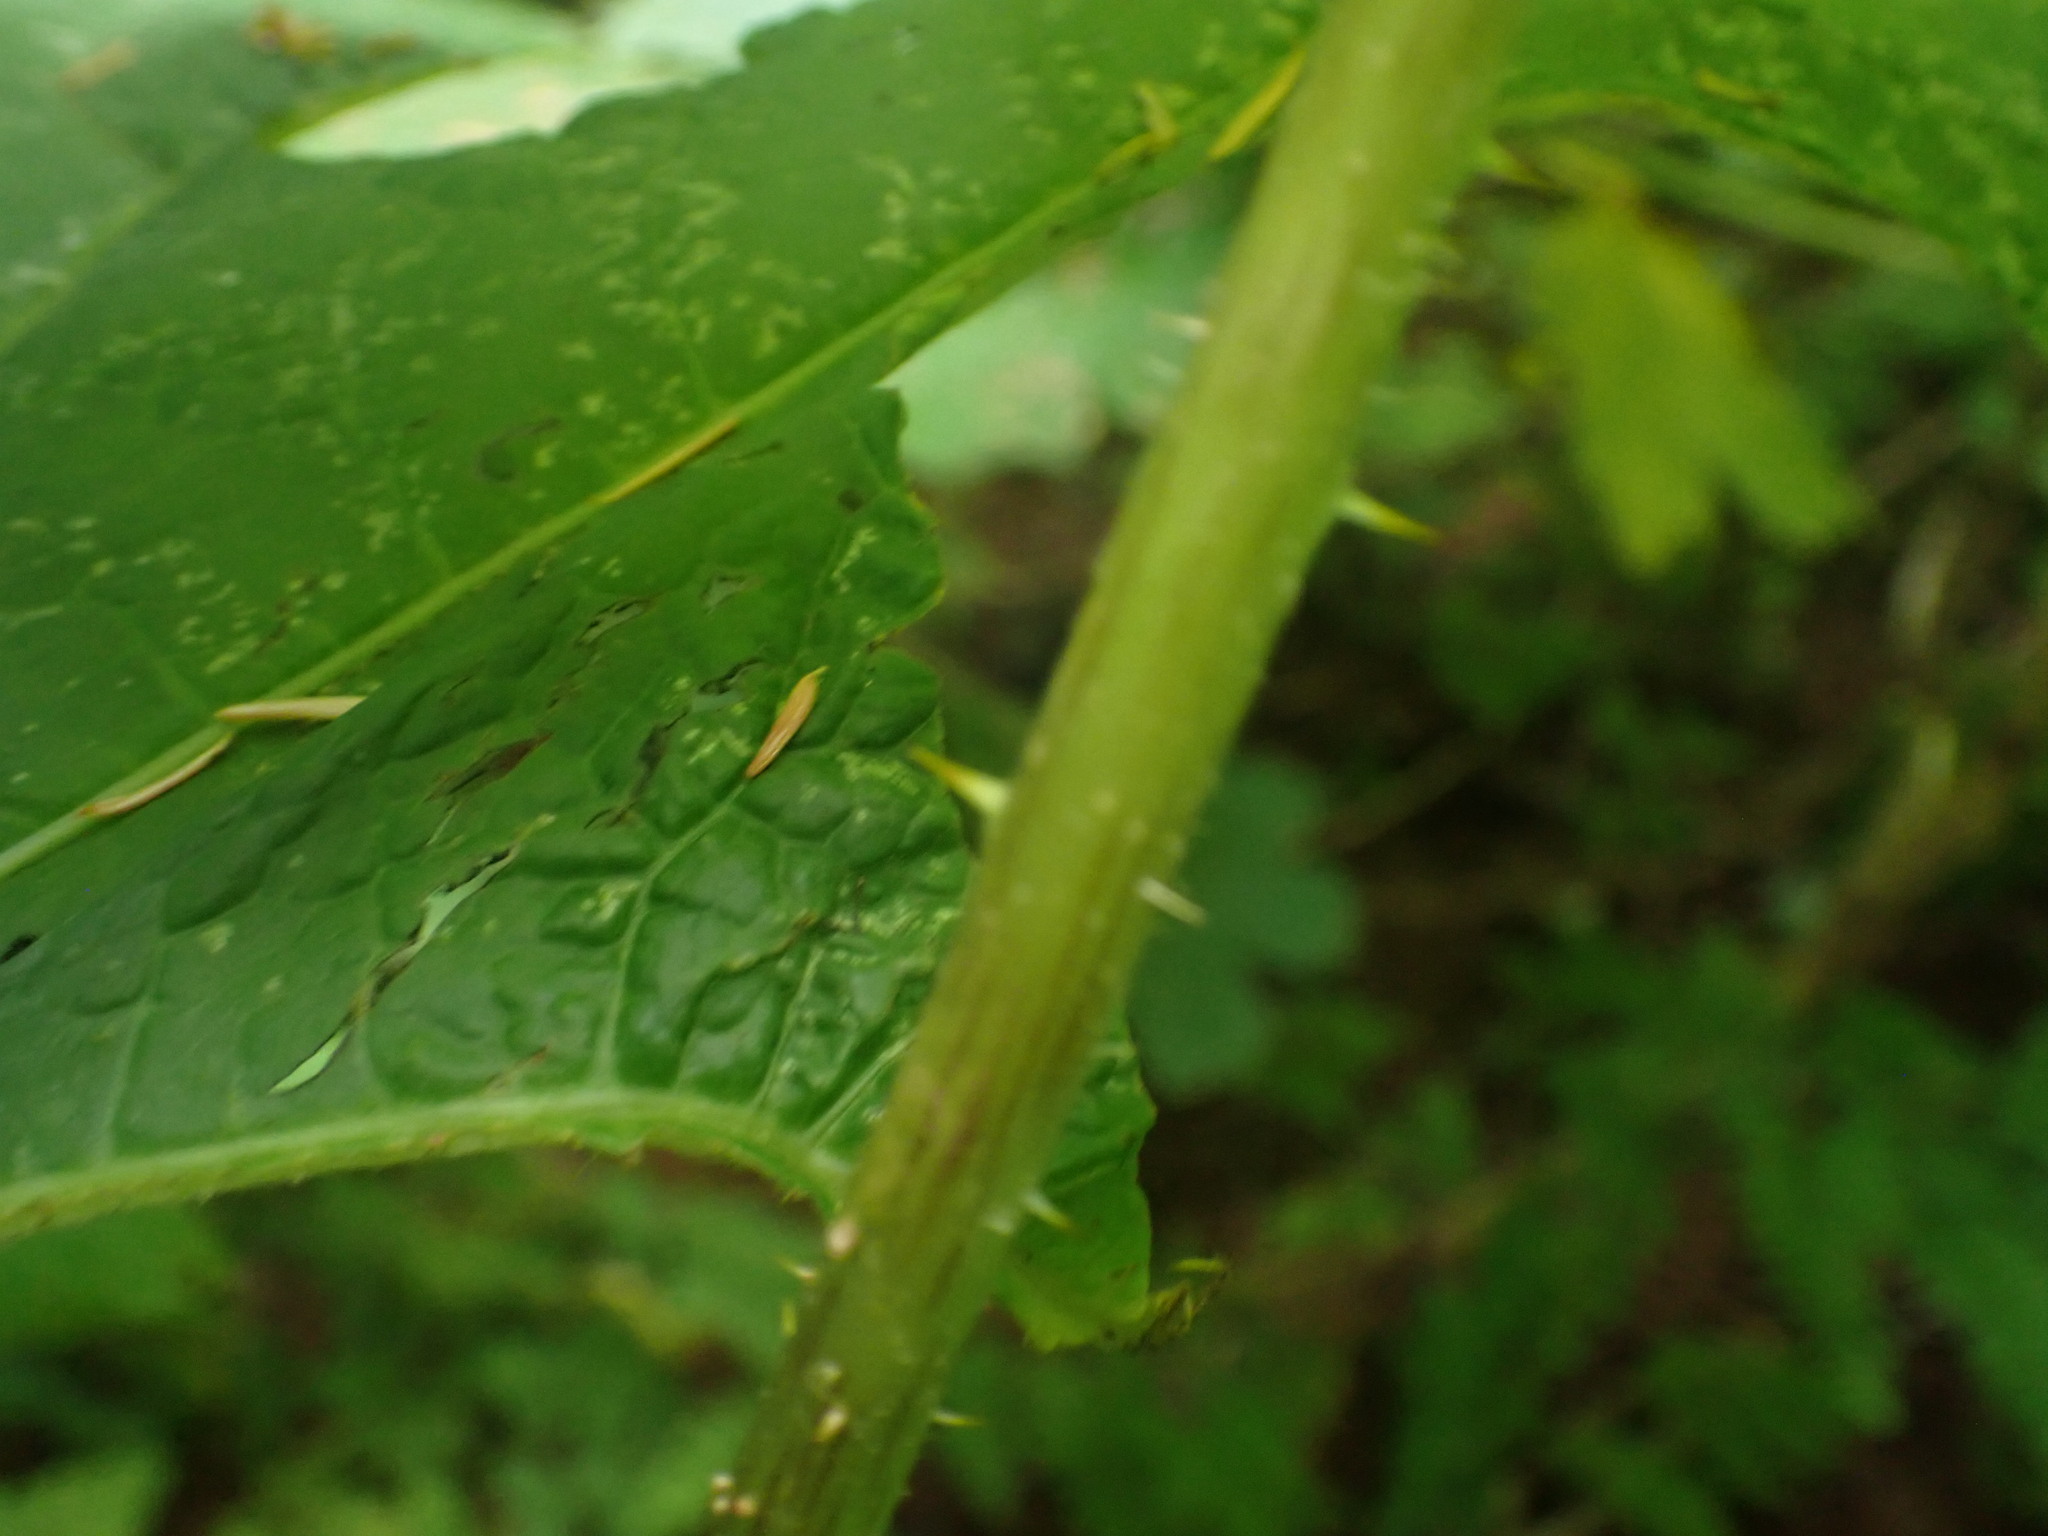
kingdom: Plantae
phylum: Tracheophyta
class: Magnoliopsida
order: Apiales
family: Araliaceae
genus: Oplopanax
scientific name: Oplopanax horridus
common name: Devil's walking-stick
